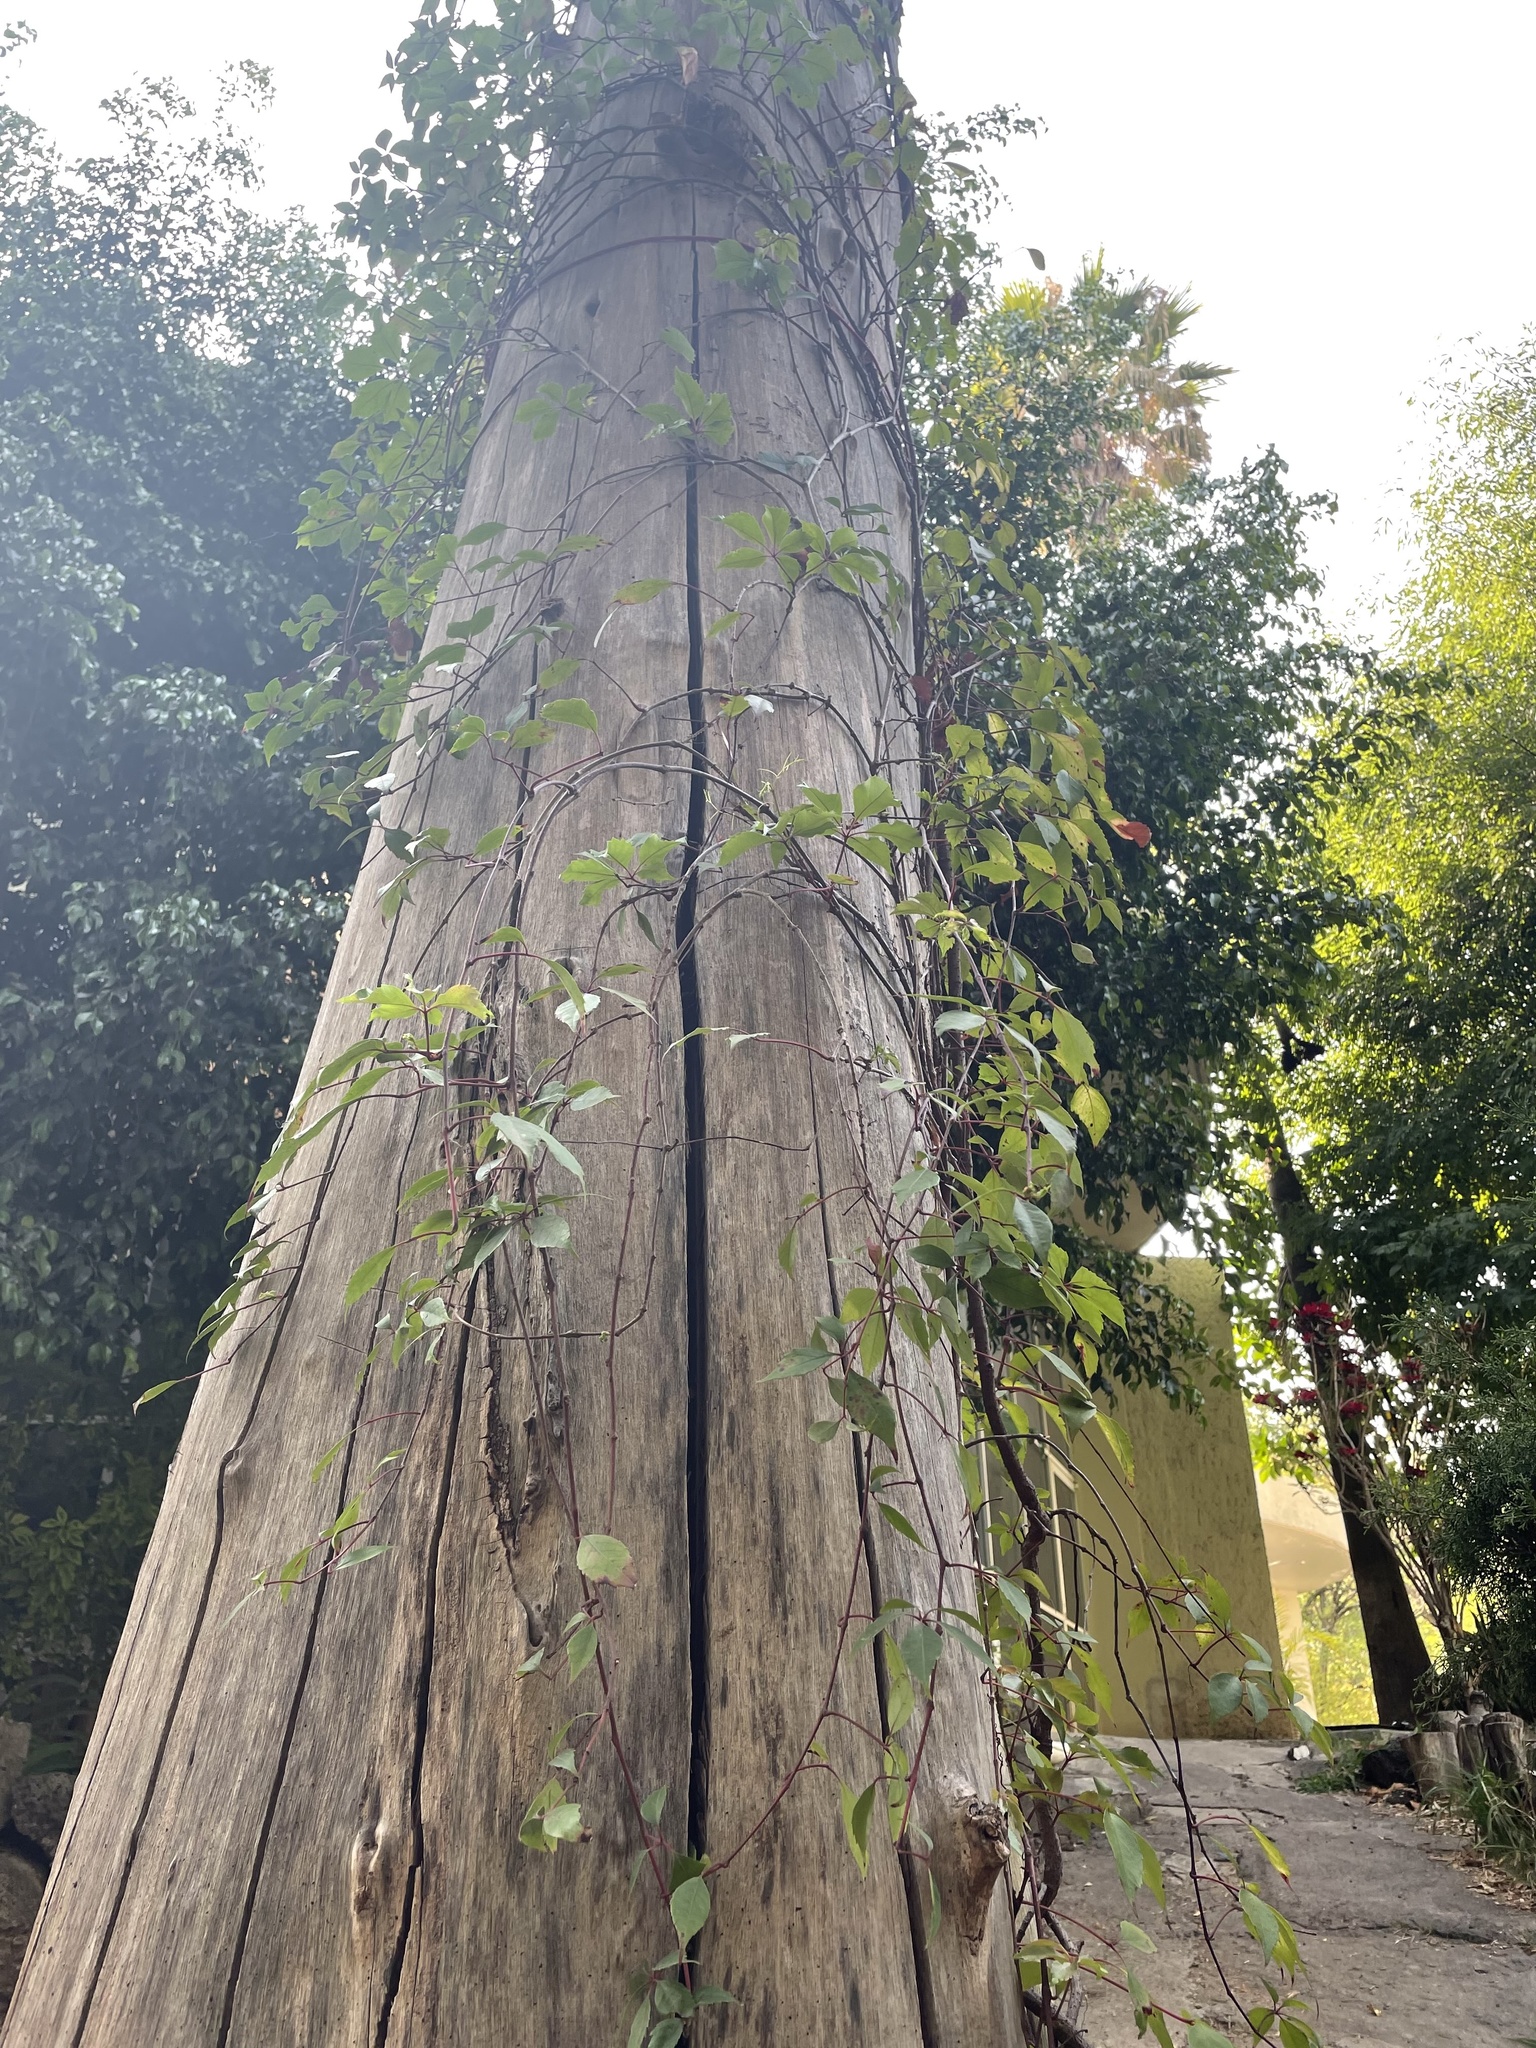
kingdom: Plantae
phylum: Tracheophyta
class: Magnoliopsida
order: Vitales
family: Vitaceae
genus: Parthenocissus
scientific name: Parthenocissus quinquefolia
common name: Virginia-creeper
